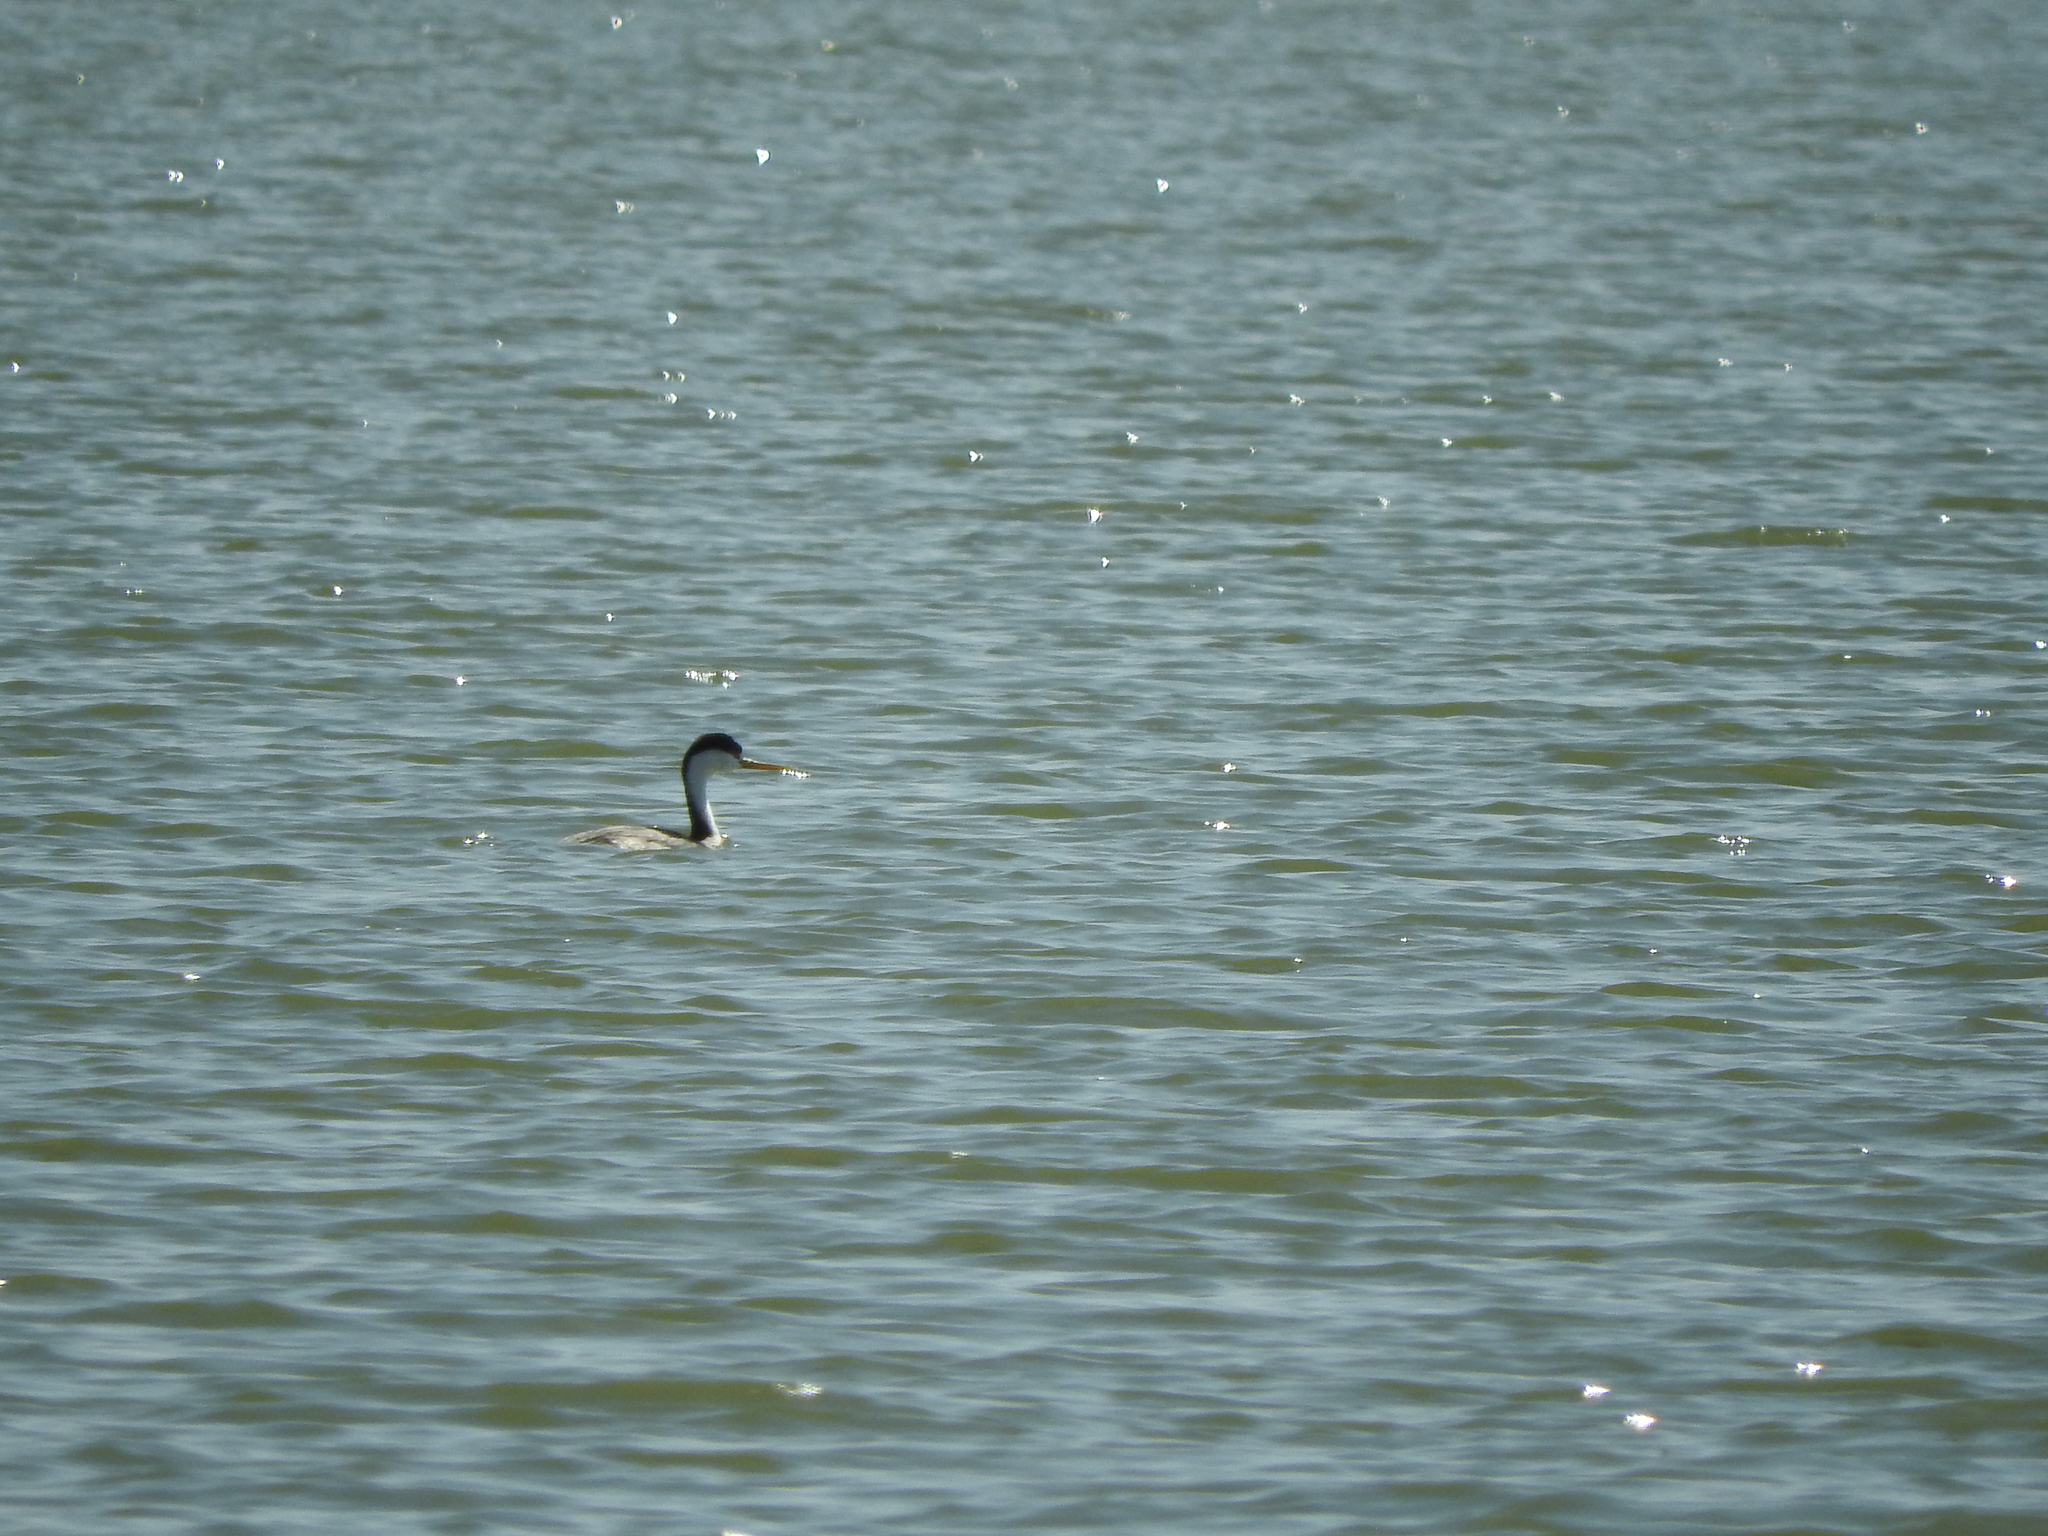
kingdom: Animalia
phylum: Chordata
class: Aves
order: Podicipediformes
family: Podicipedidae
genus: Aechmophorus
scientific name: Aechmophorus clarkii
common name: Clark's grebe
